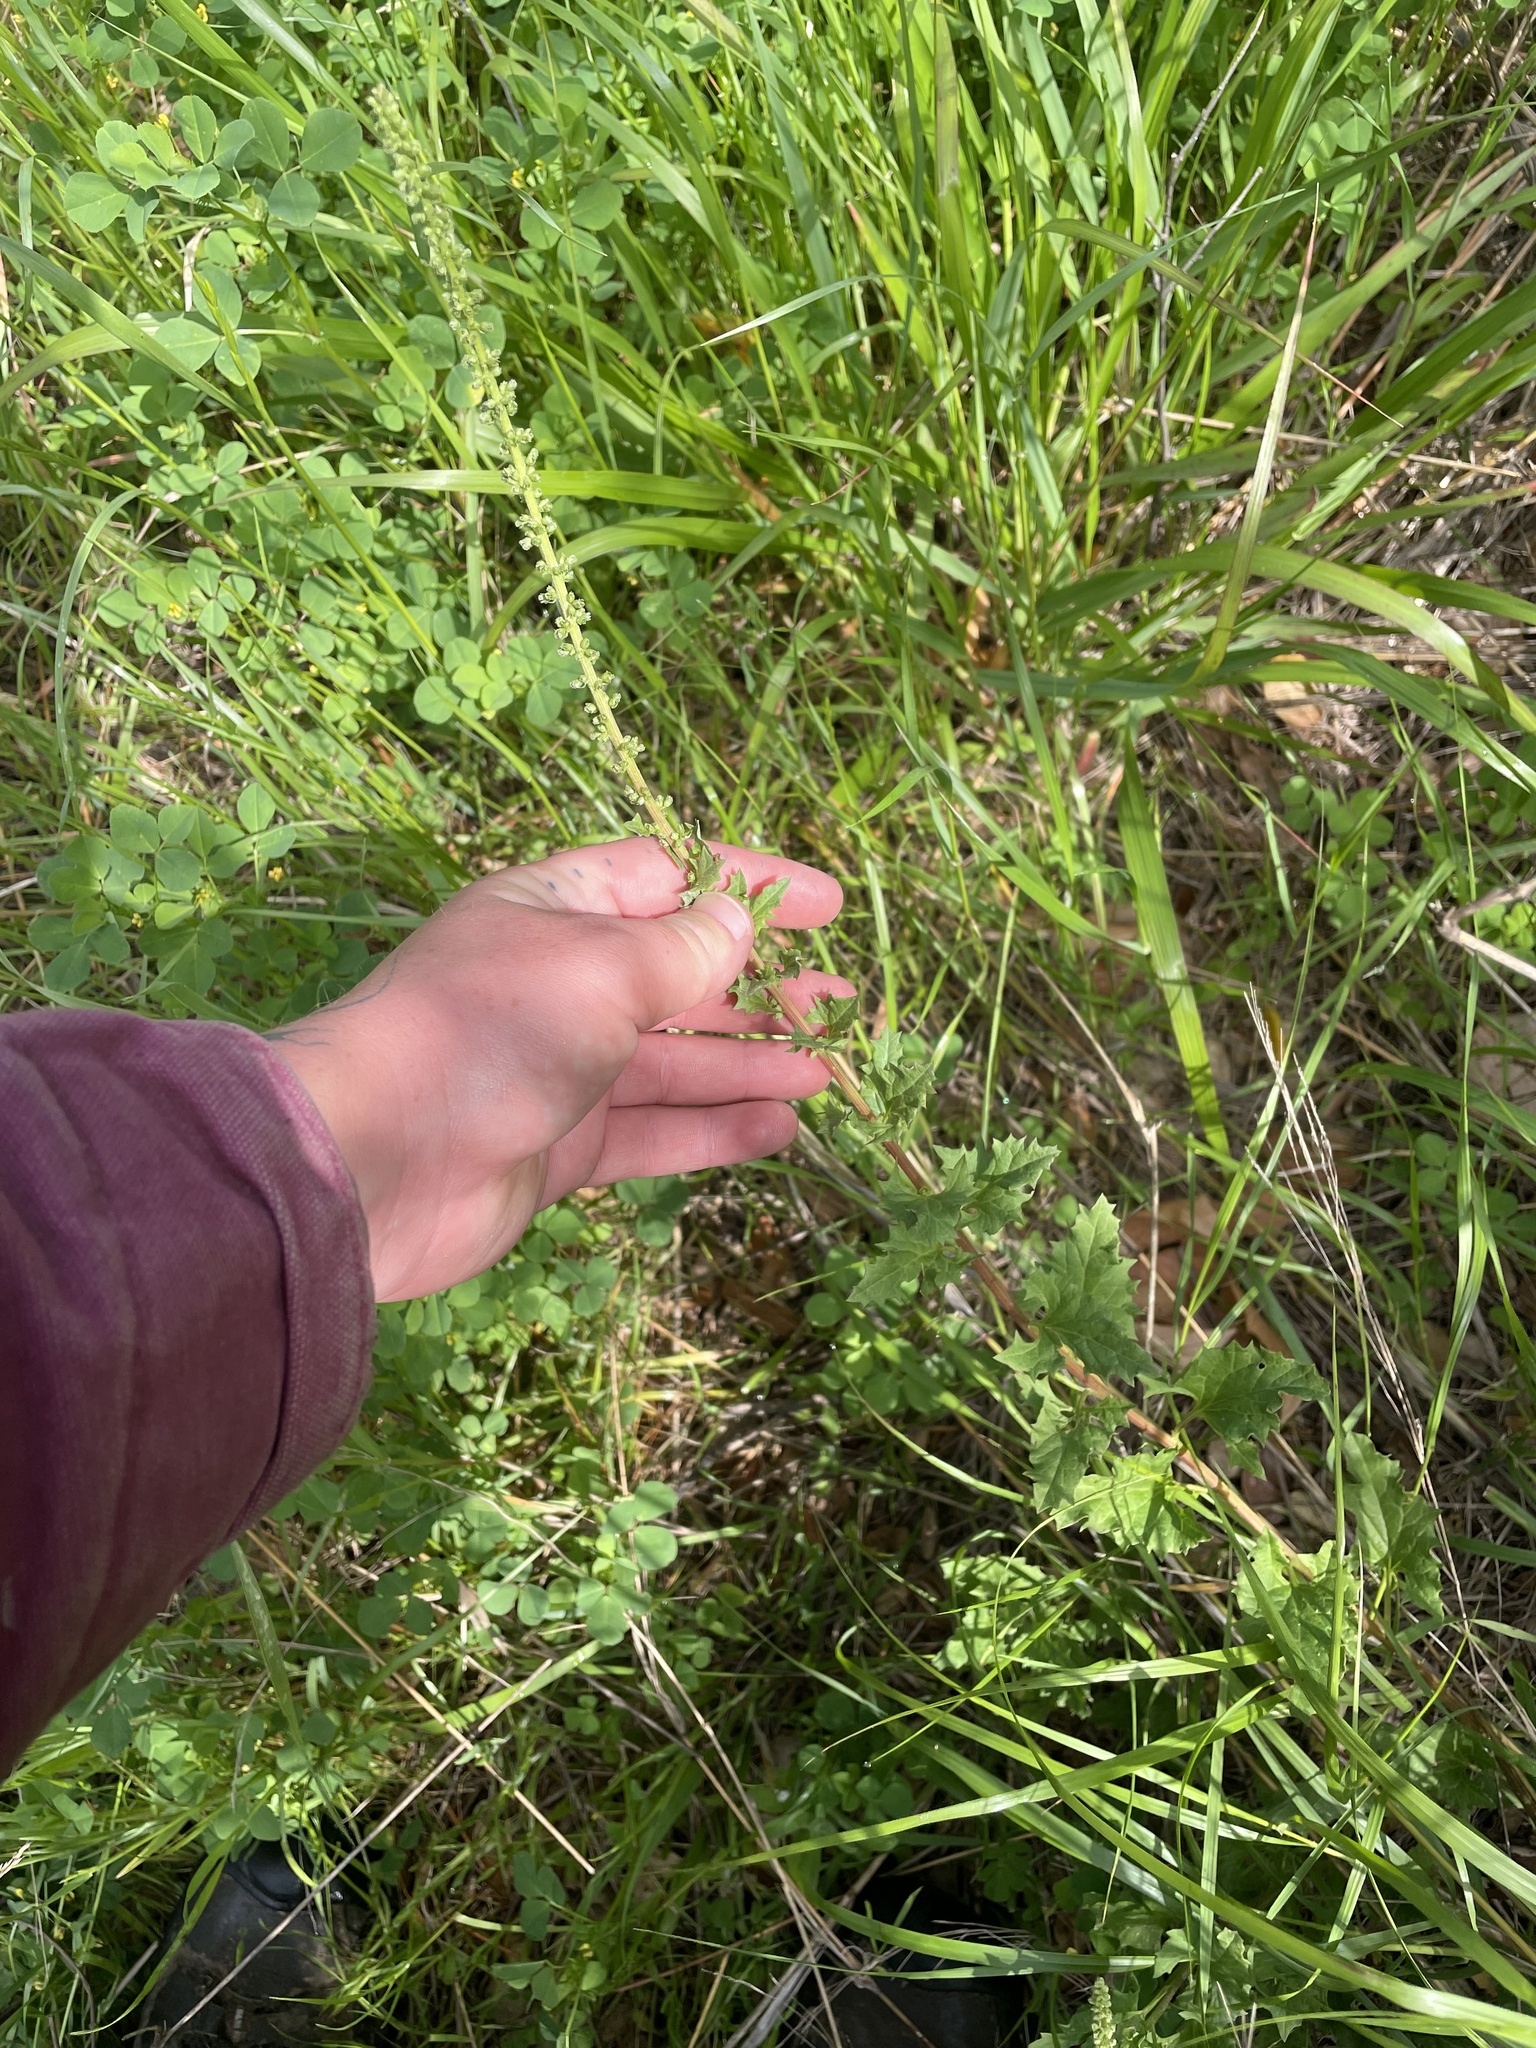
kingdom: Plantae
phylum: Tracheophyta
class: Magnoliopsida
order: Caryophyllales
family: Amaranthaceae
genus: Blitum
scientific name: Blitum californicum
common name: California goosefoot
